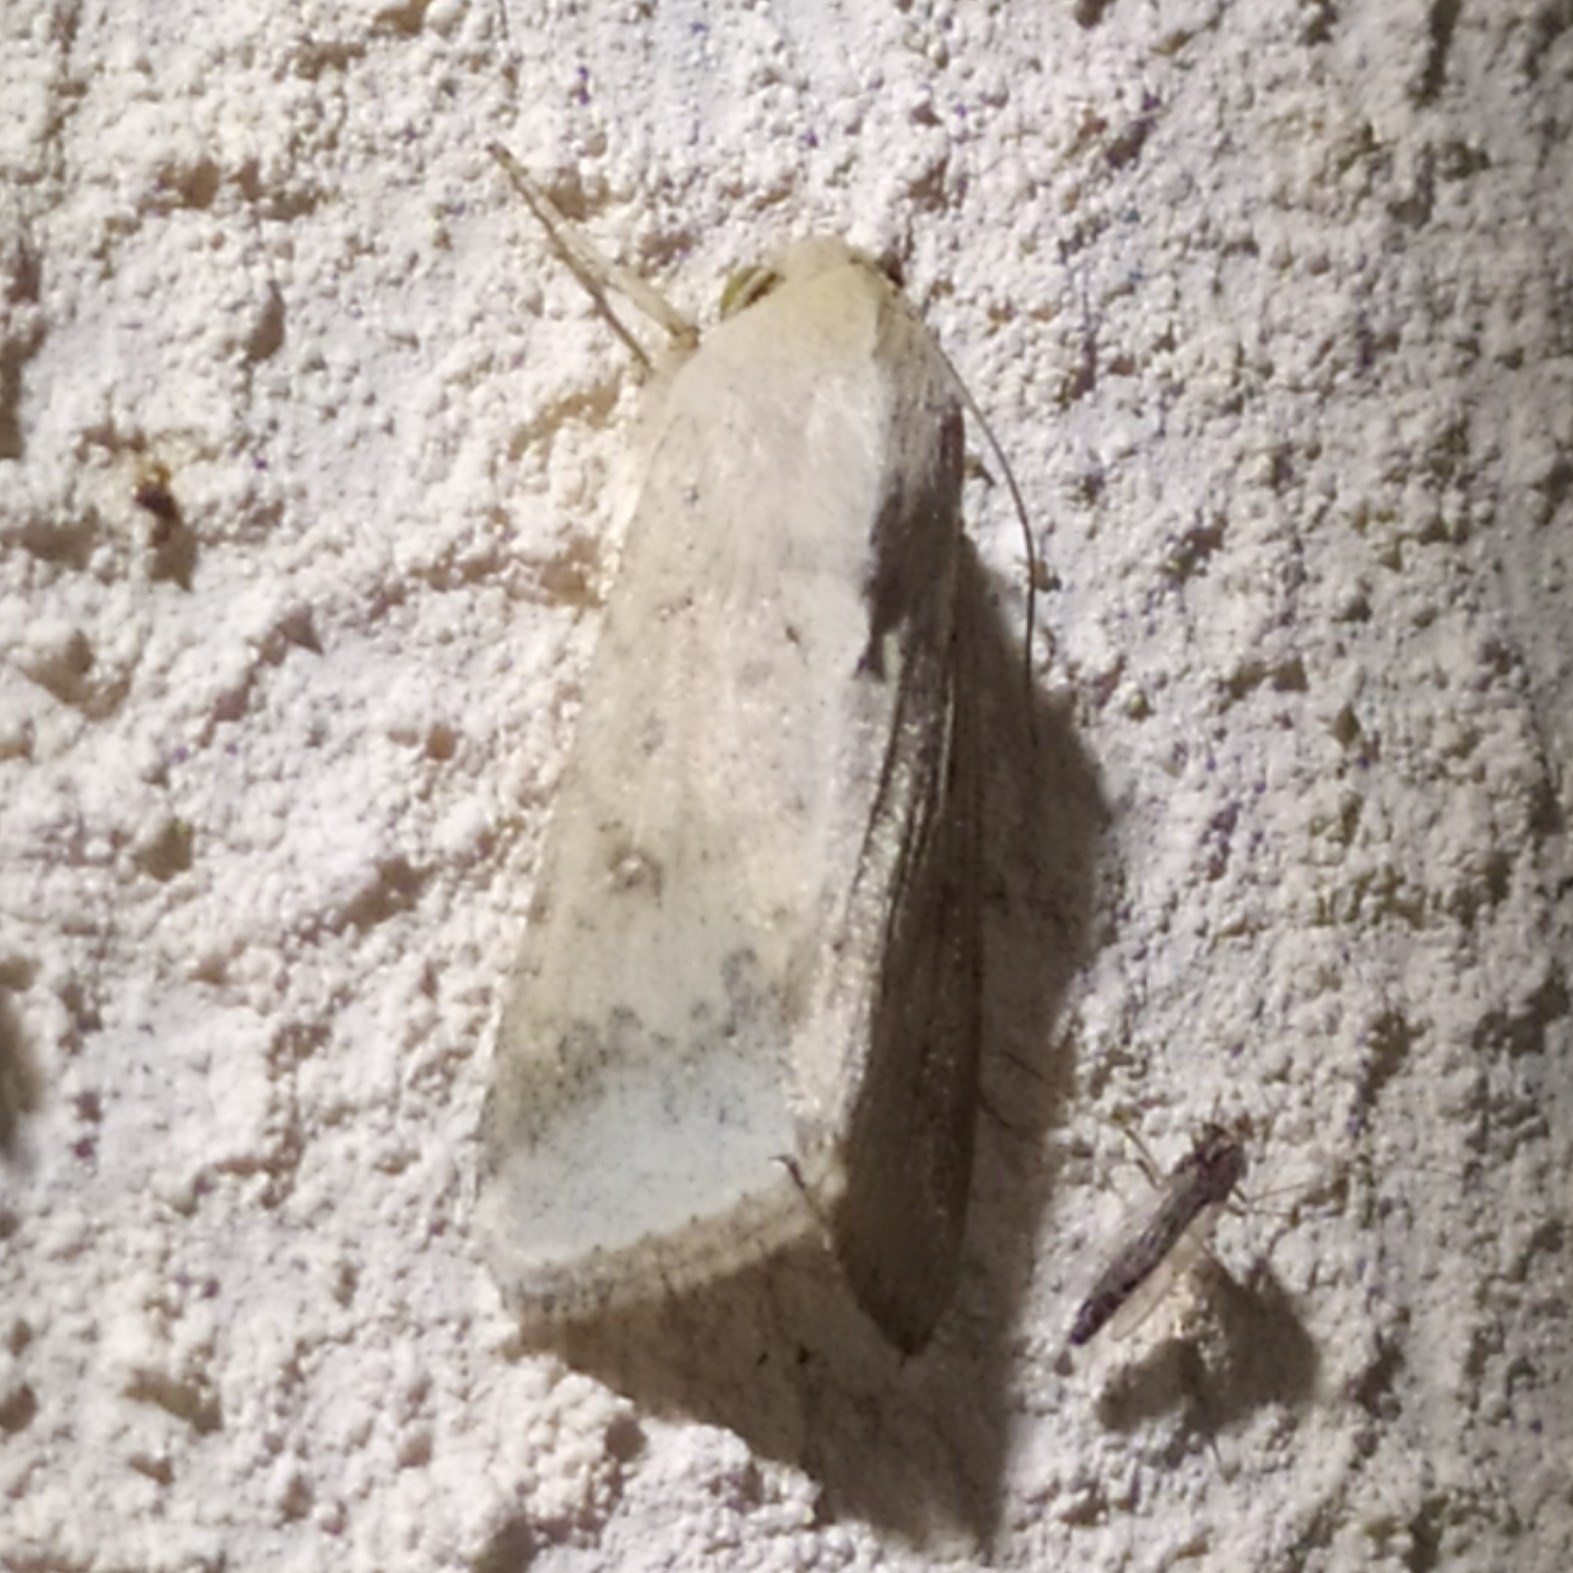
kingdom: Animalia
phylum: Arthropoda
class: Insecta
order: Lepidoptera
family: Noctuidae
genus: Helicoverpa
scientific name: Helicoverpa armigera
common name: Cotton bollworm
